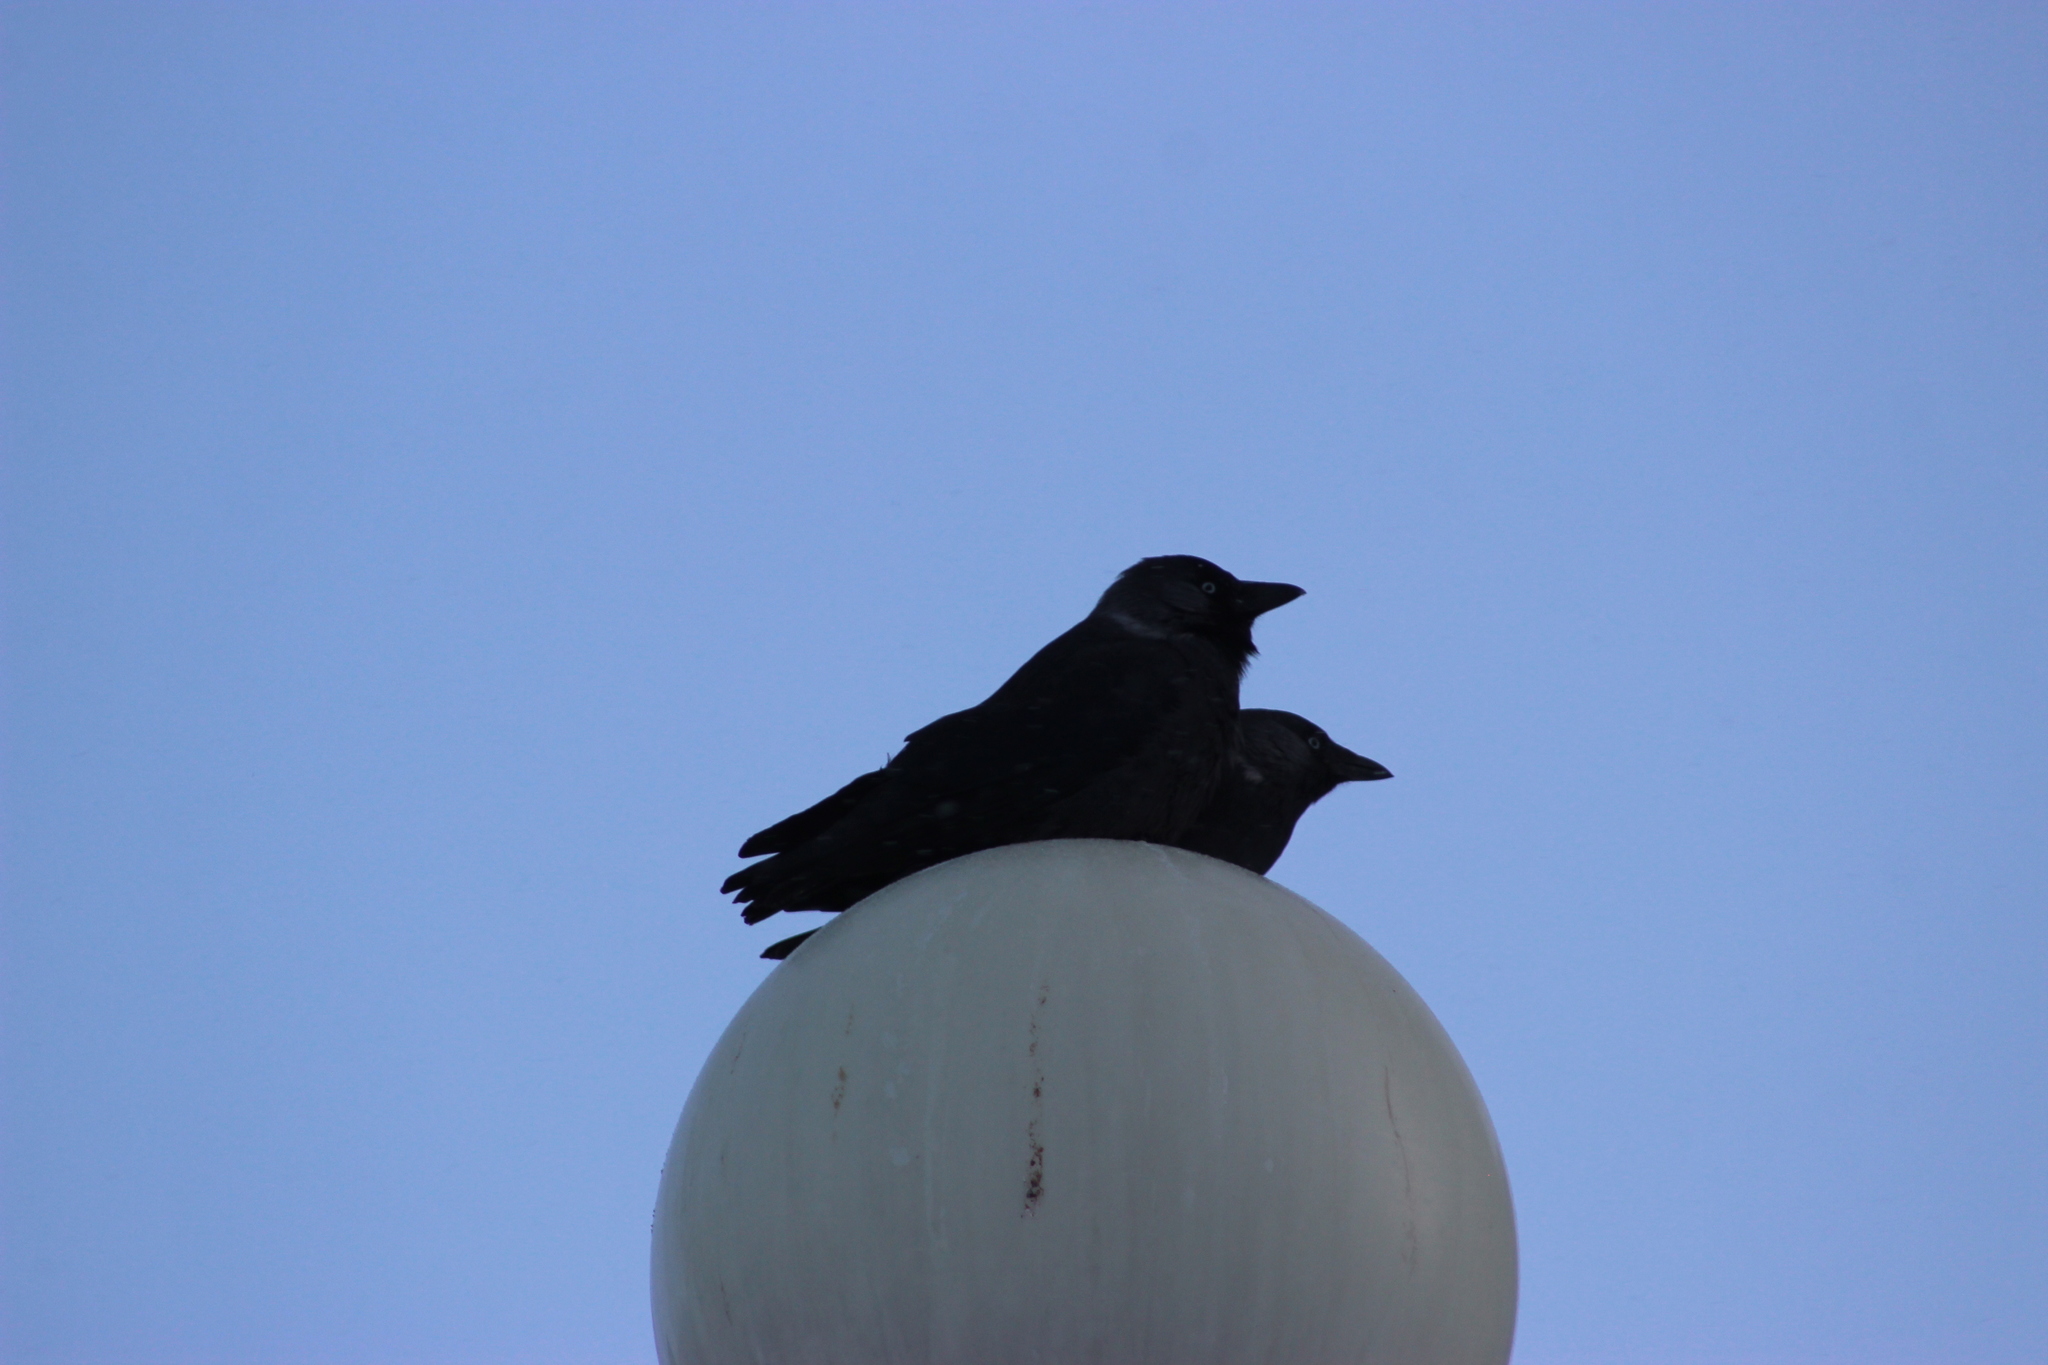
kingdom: Animalia
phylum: Chordata
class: Aves
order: Passeriformes
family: Corvidae
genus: Coloeus
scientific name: Coloeus monedula
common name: Western jackdaw
